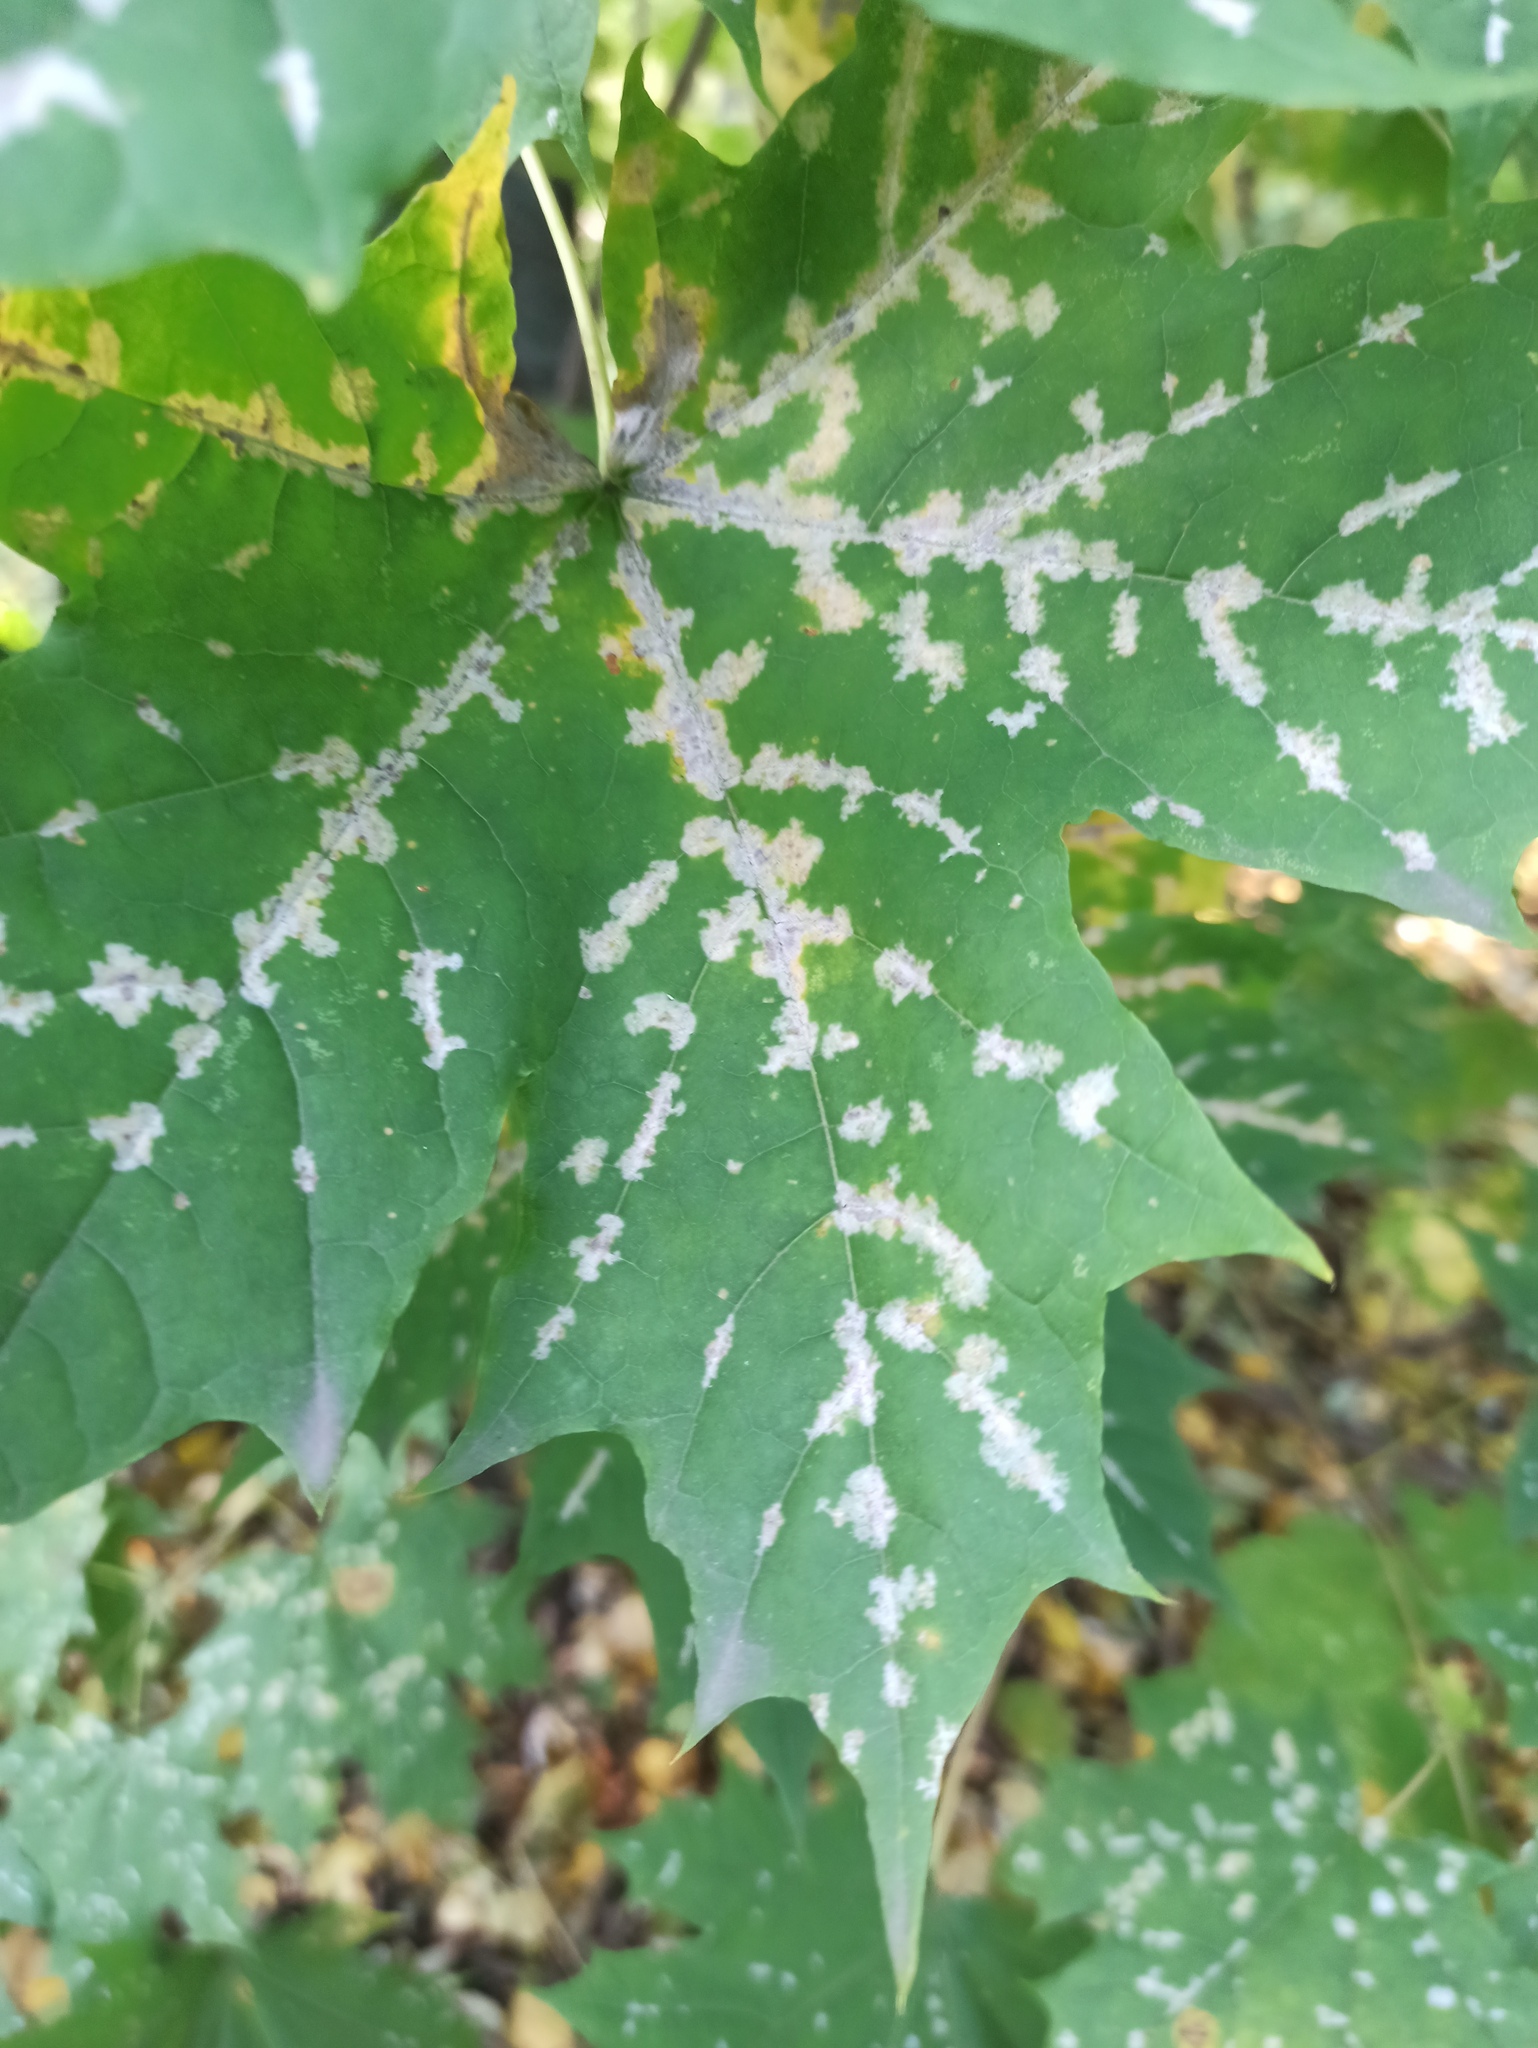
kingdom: Fungi
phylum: Ascomycota
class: Leotiomycetes
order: Helotiales
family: Erysiphaceae
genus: Sawadaea
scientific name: Sawadaea tulasnei
